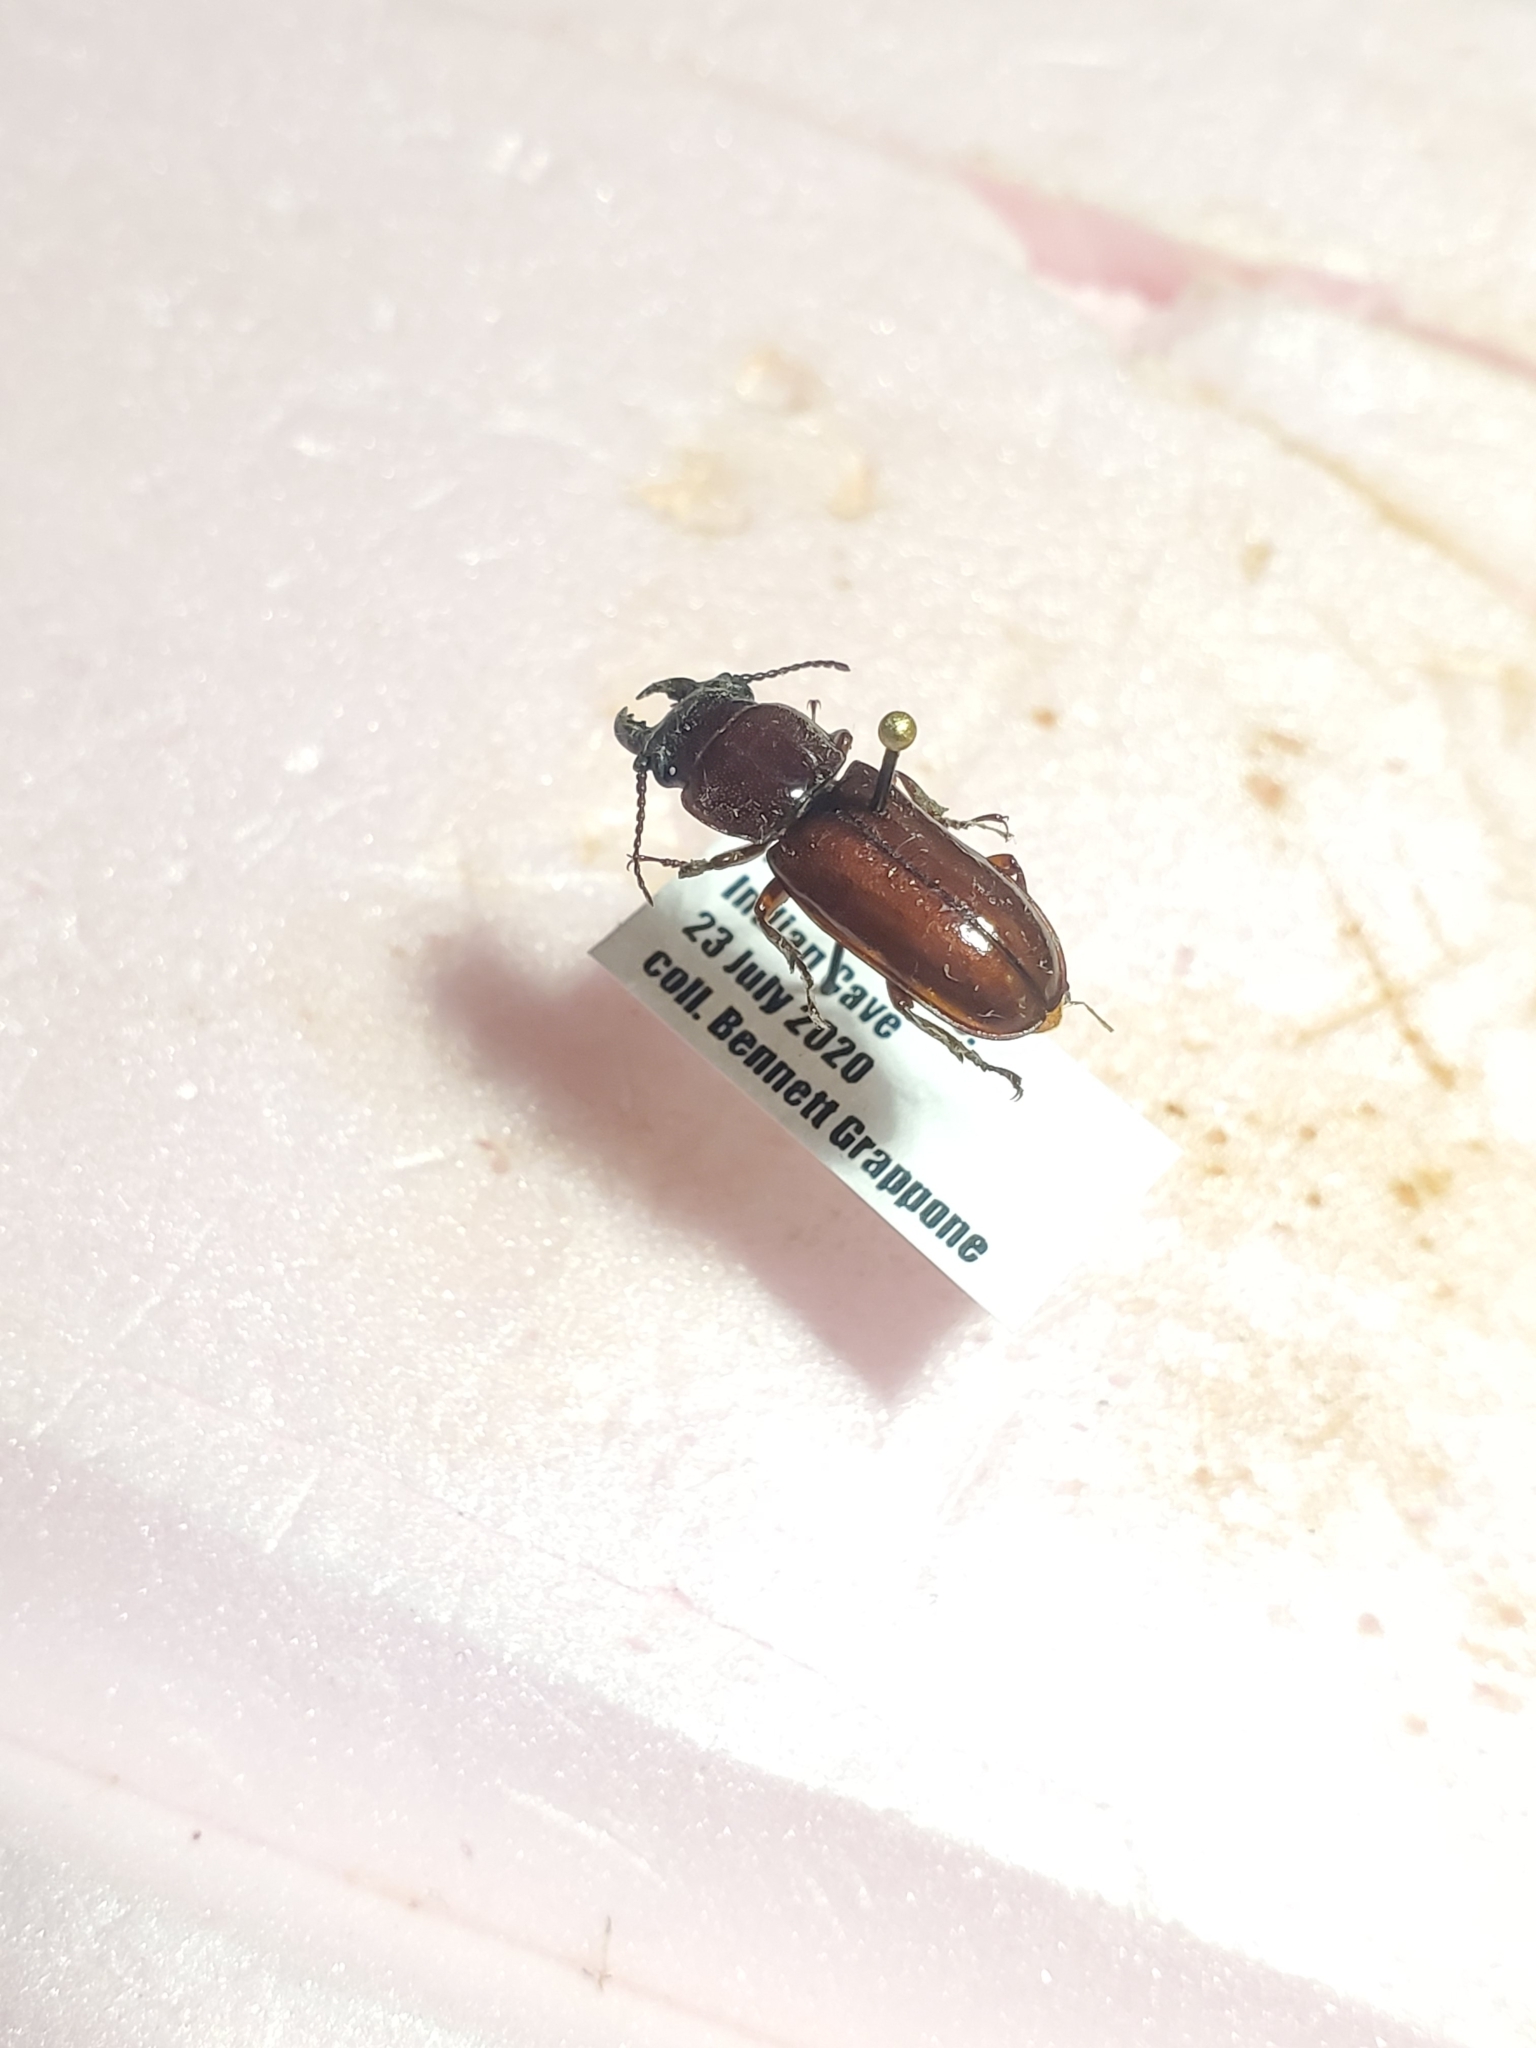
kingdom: Animalia
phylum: Arthropoda
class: Insecta
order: Coleoptera
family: Cerambycidae
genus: Neandra
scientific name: Neandra brunnea
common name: Pole borer
